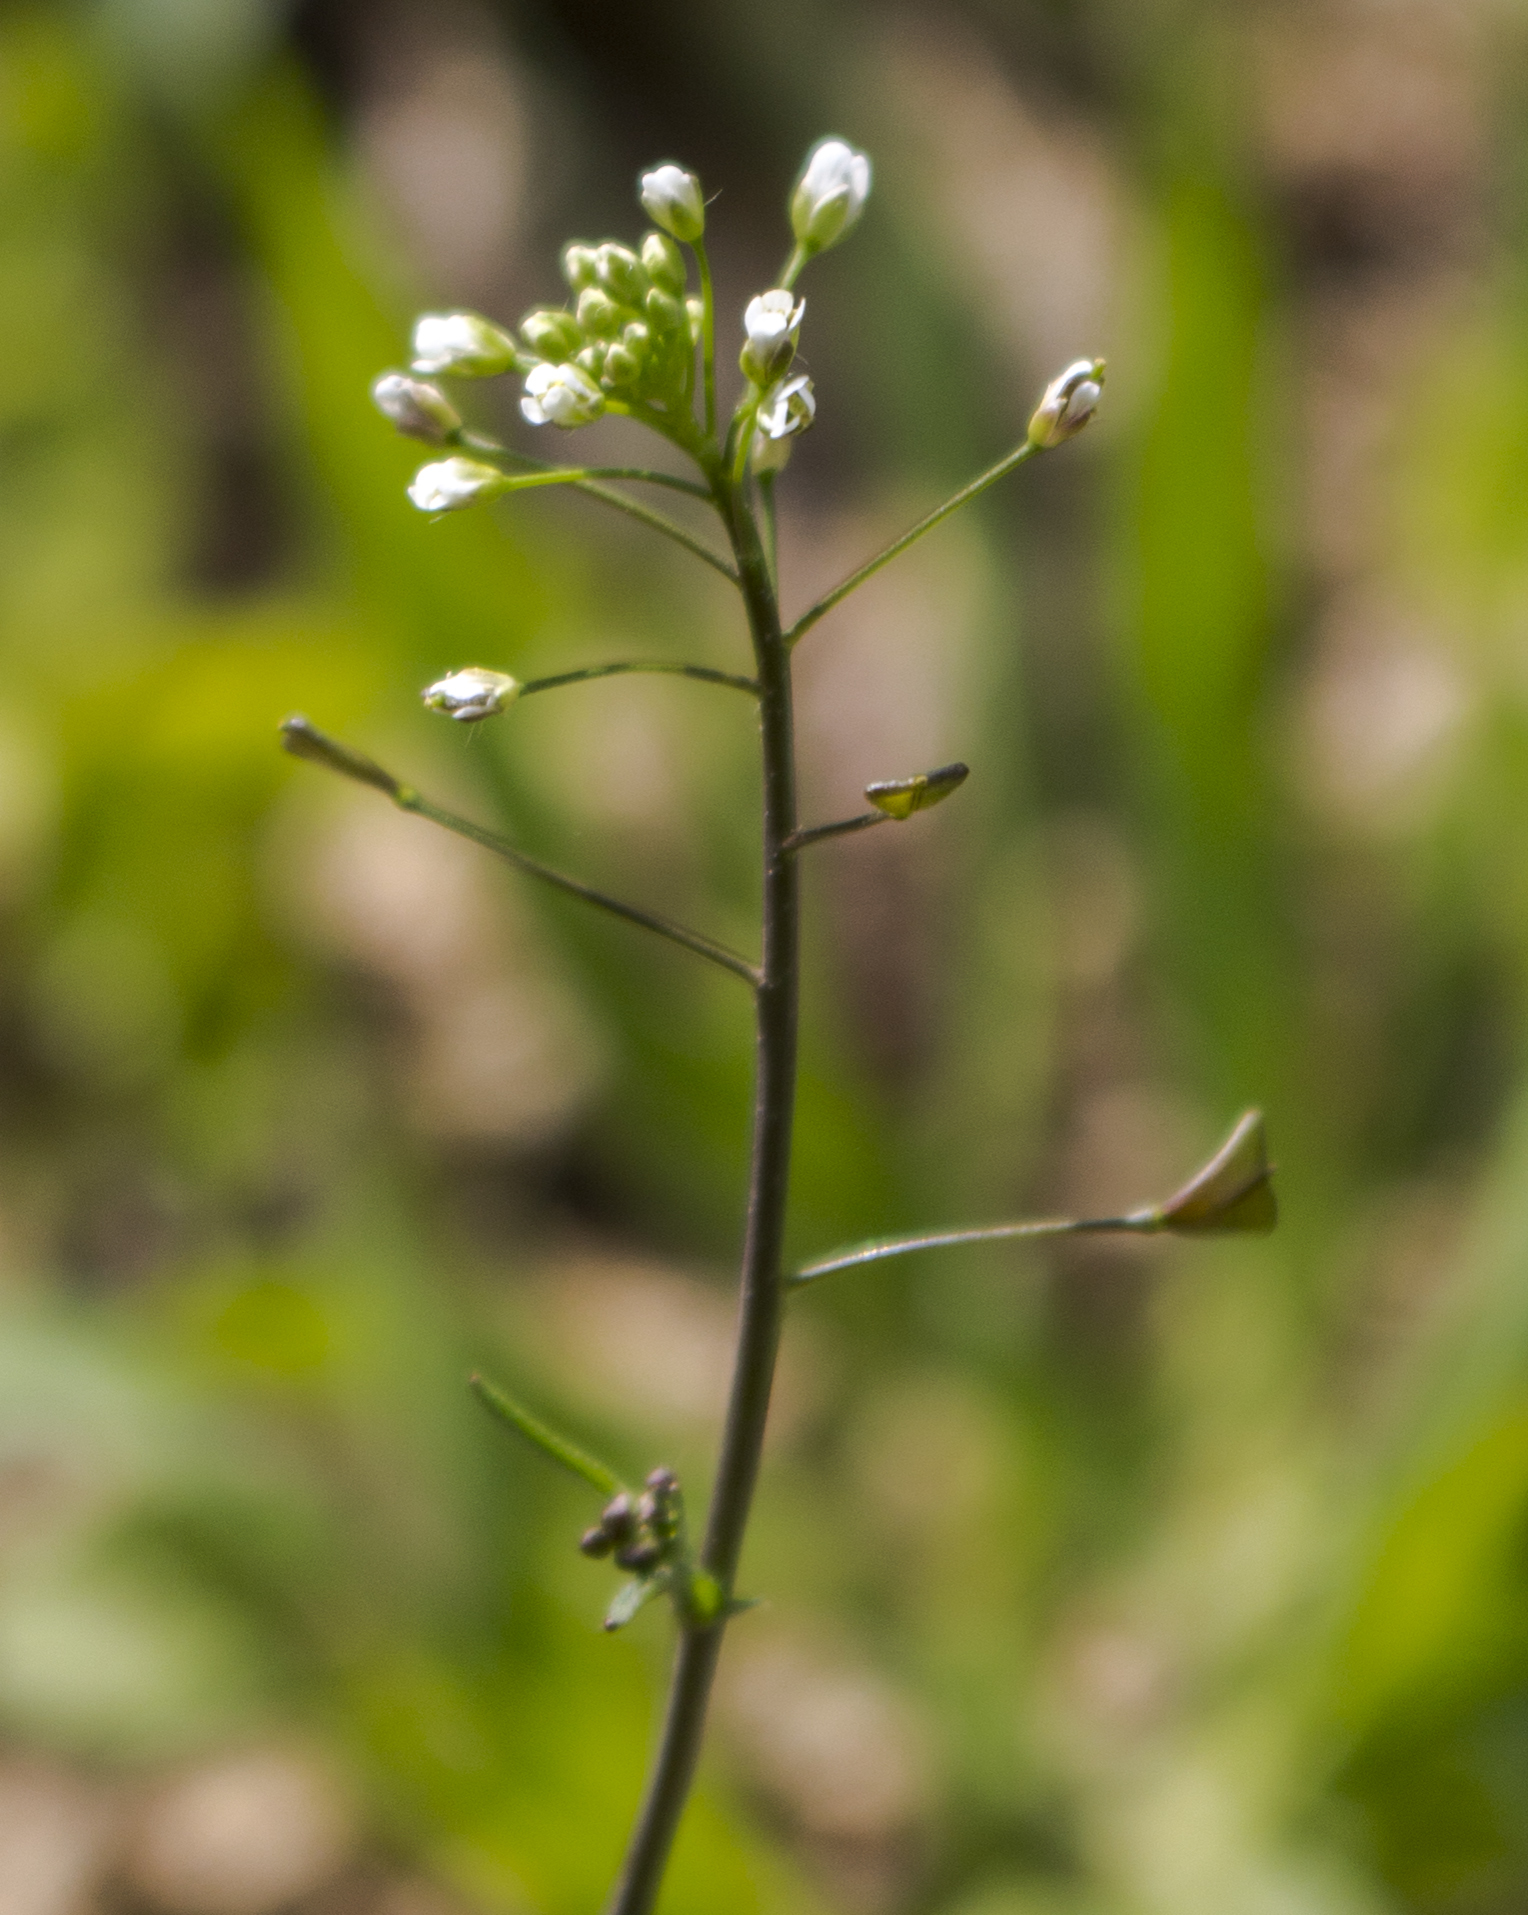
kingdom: Plantae
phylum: Tracheophyta
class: Magnoliopsida
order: Brassicales
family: Brassicaceae
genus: Capsella
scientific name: Capsella bursa-pastoris
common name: Shepherd's purse
